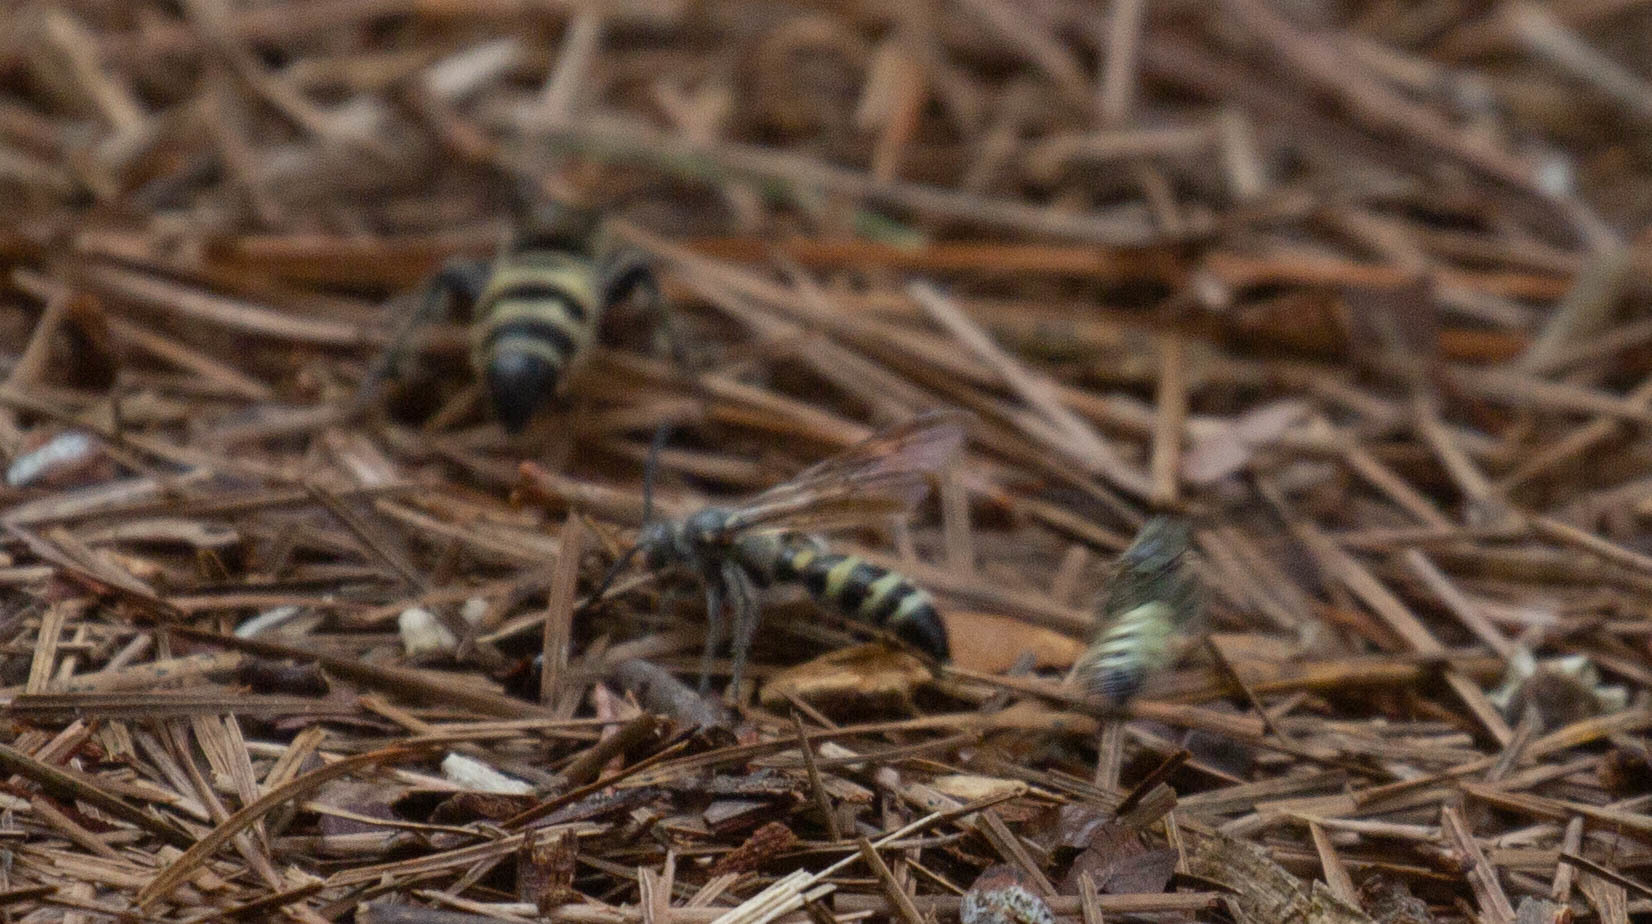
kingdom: Animalia
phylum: Arthropoda
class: Insecta
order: Hymenoptera
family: Scoliidae
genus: Dielis
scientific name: Dielis
